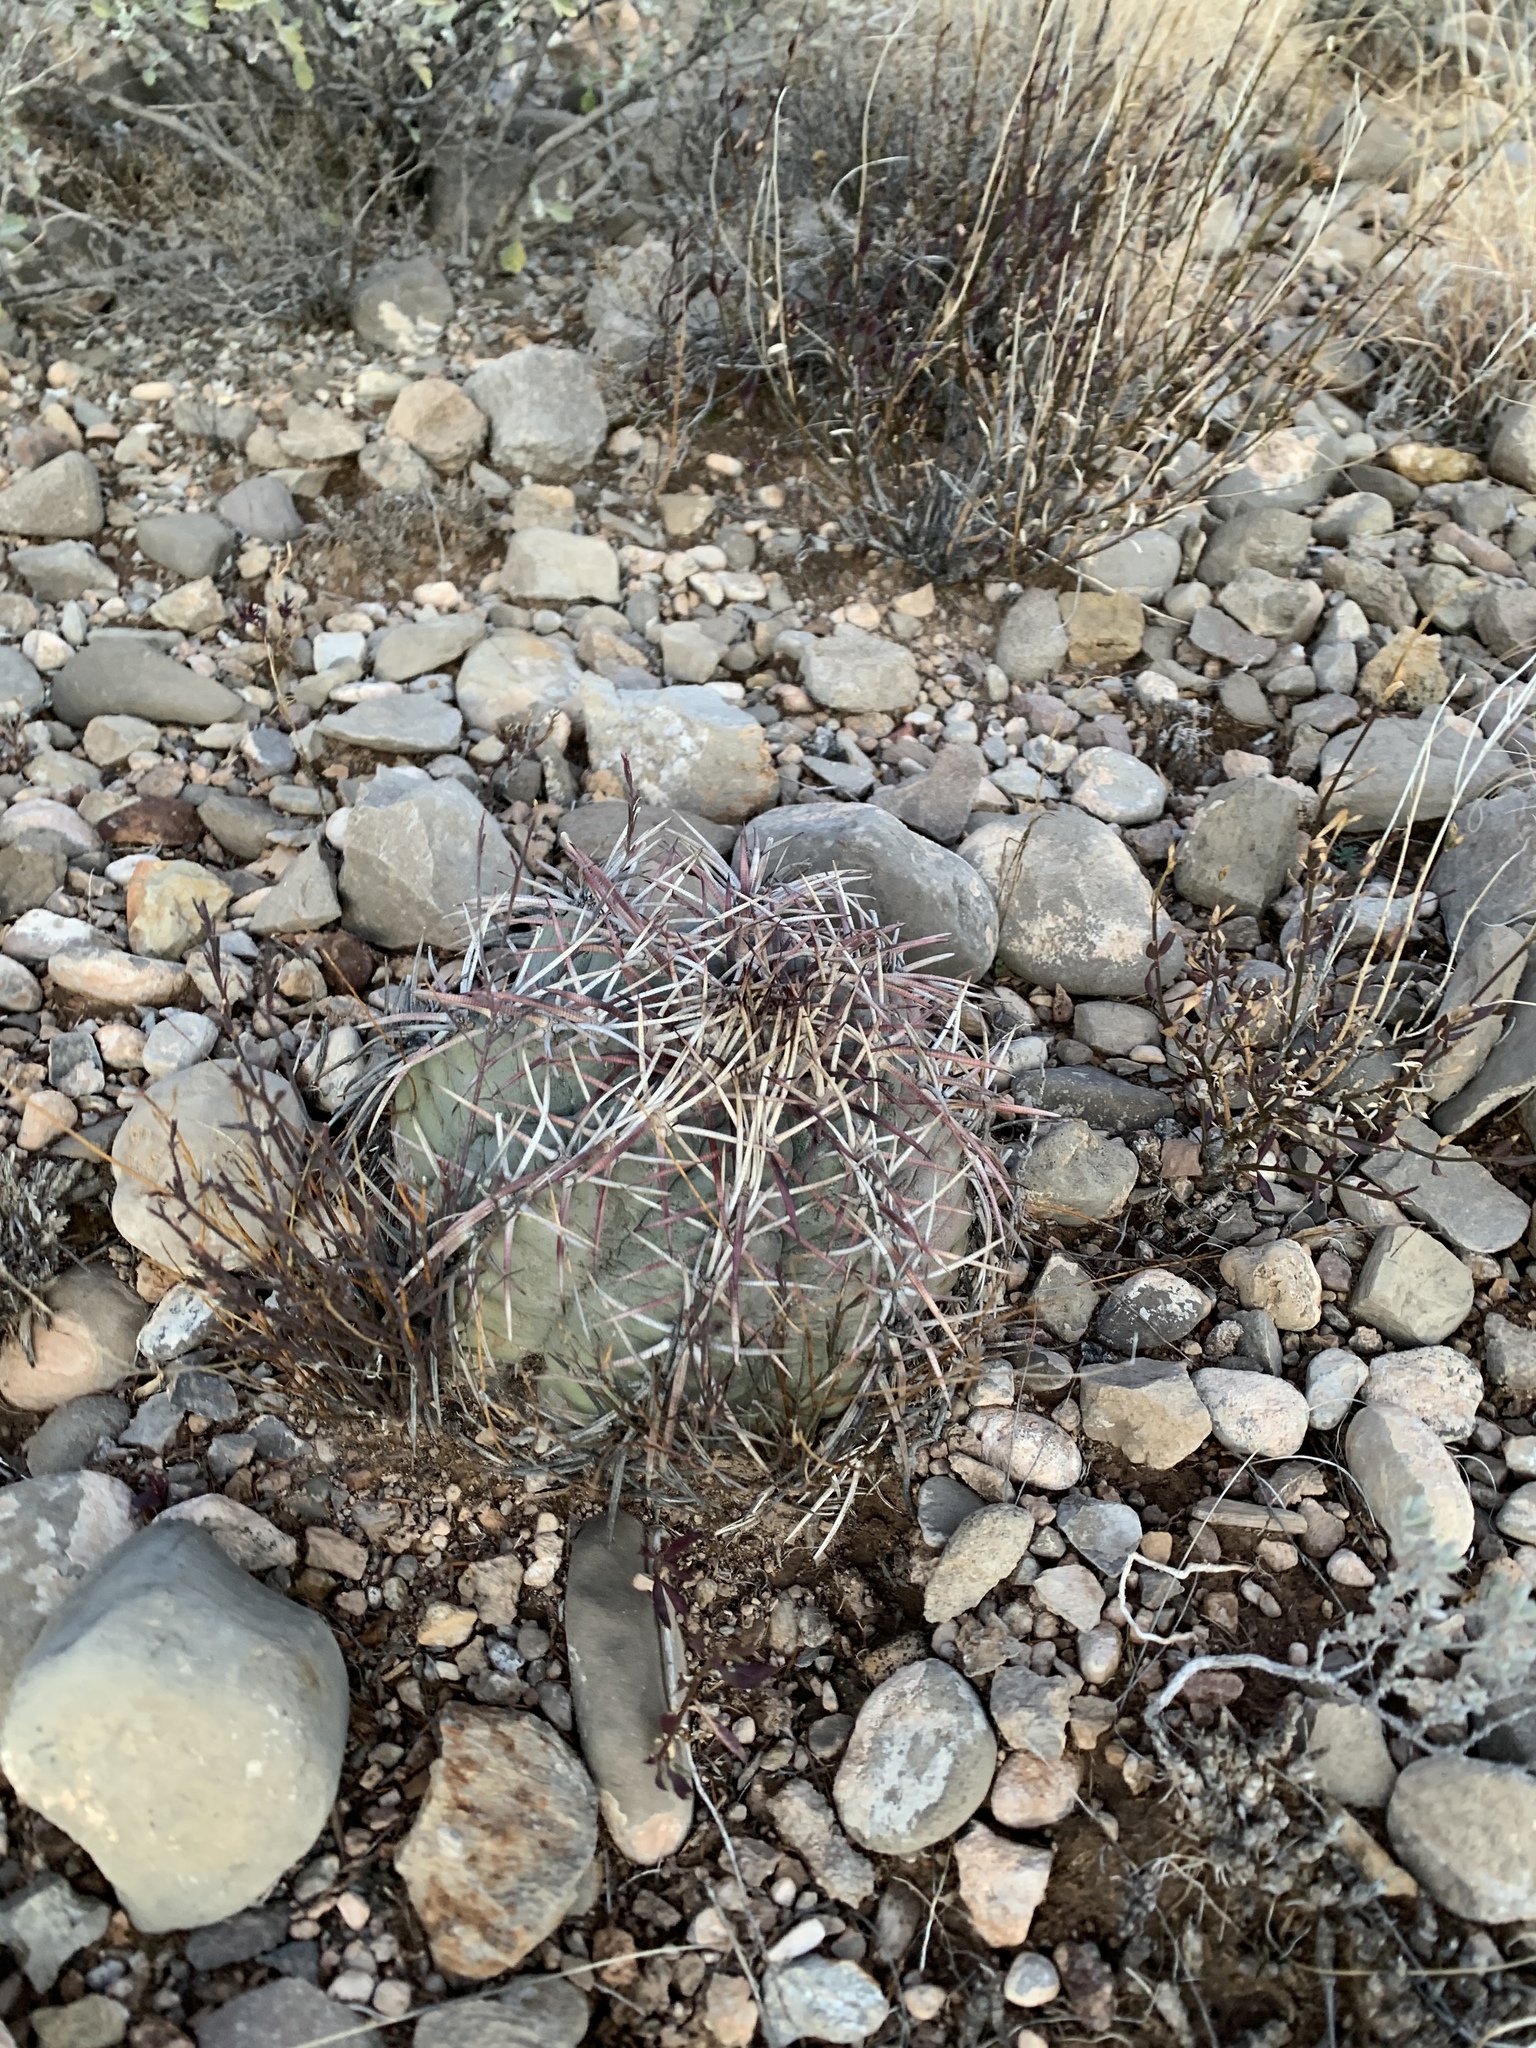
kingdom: Plantae
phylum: Tracheophyta
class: Magnoliopsida
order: Caryophyllales
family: Cactaceae
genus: Echinocactus
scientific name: Echinocactus horizonthalonius
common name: Devilshead
